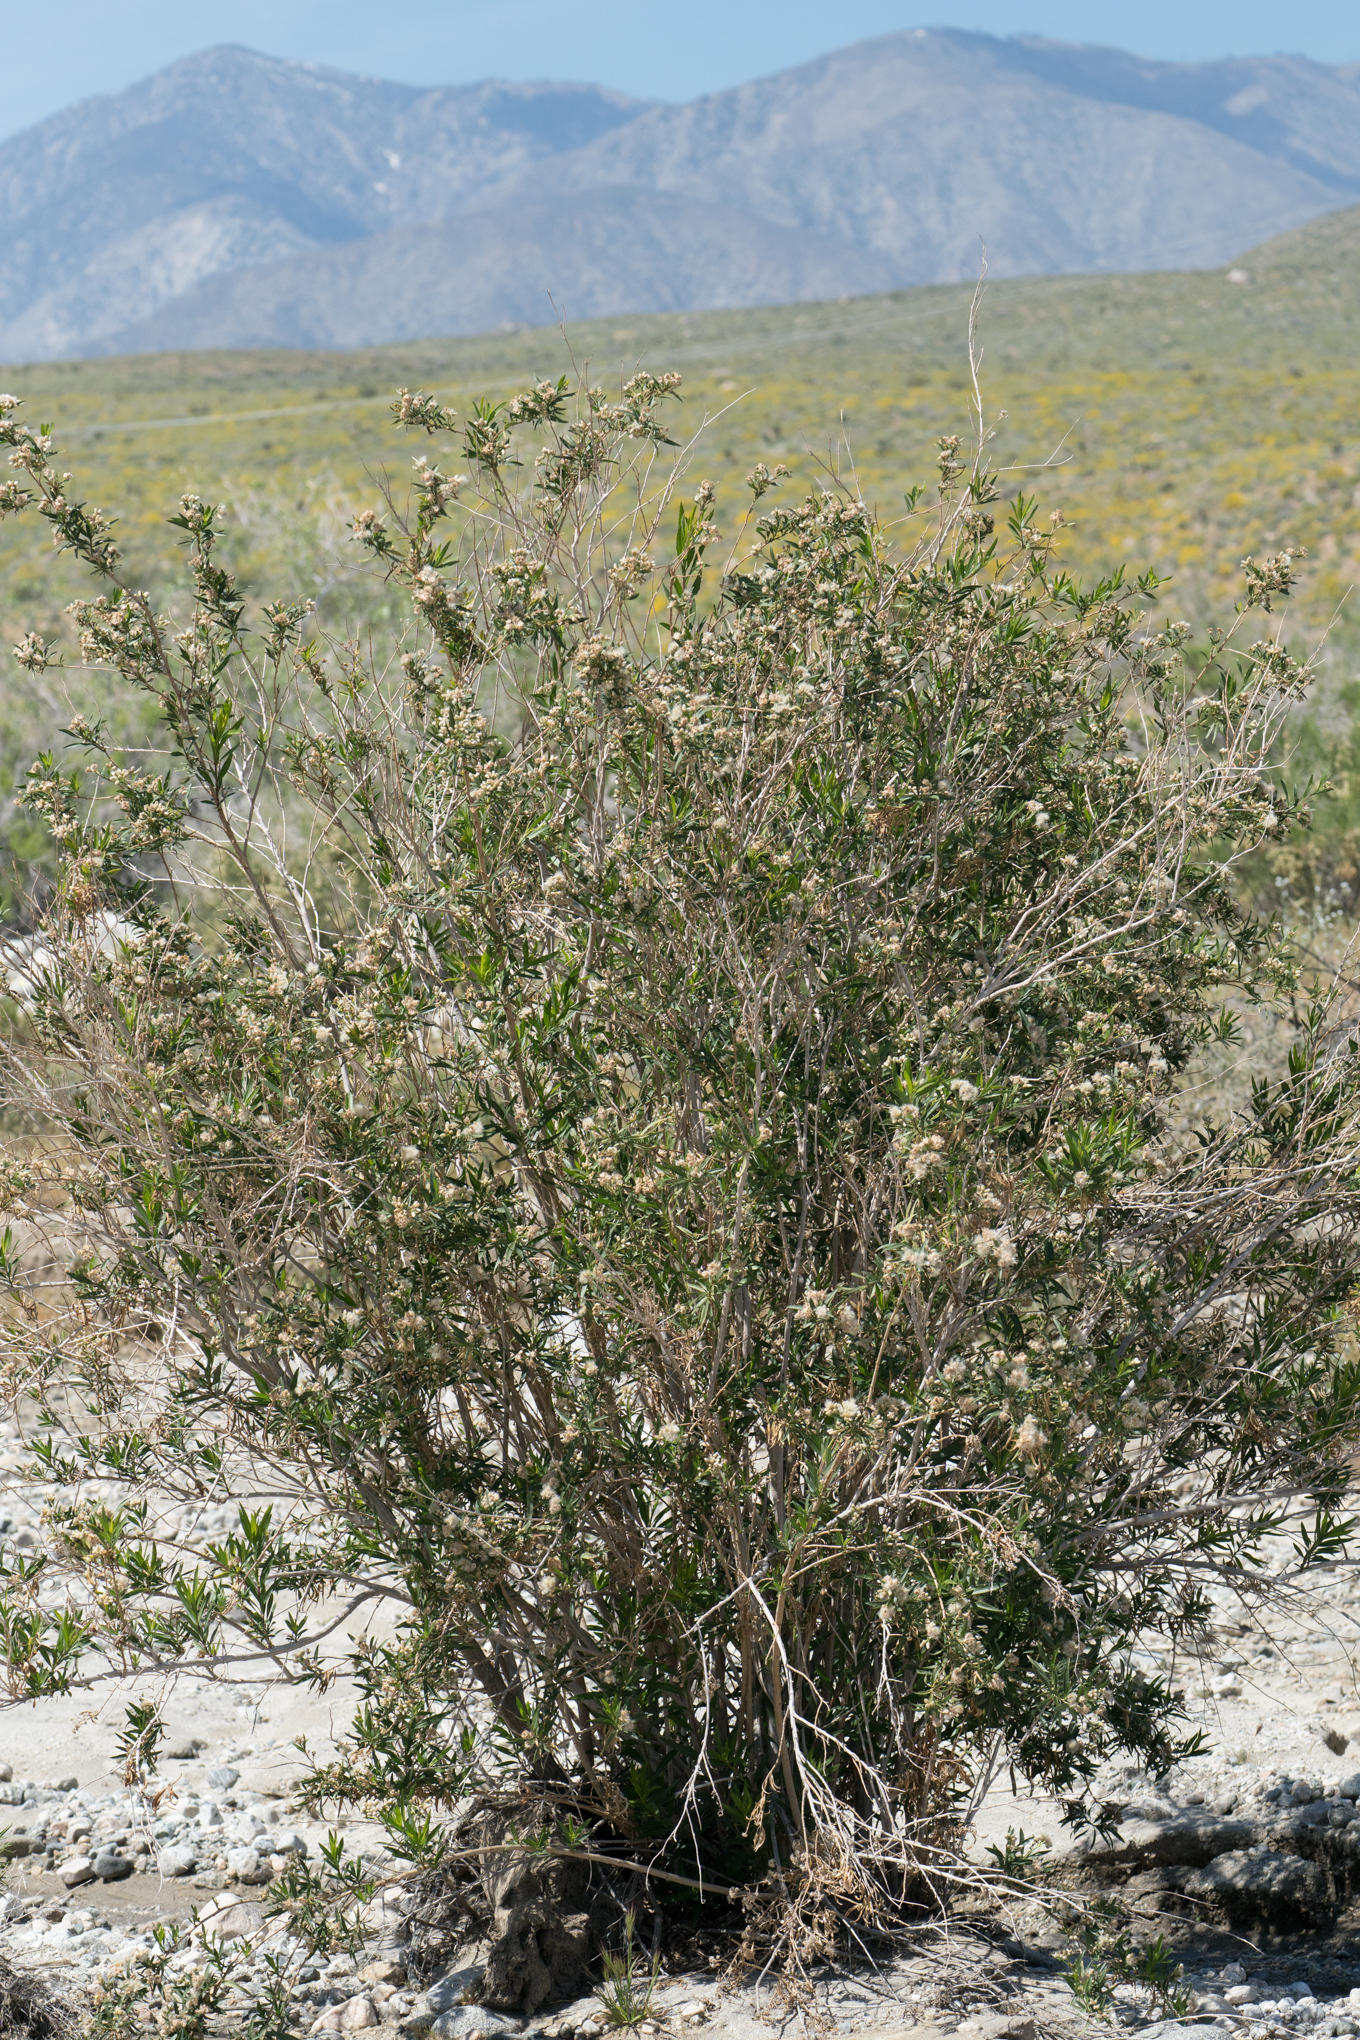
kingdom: Plantae
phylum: Tracheophyta
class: Magnoliopsida
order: Asterales
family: Asteraceae
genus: Baccharis
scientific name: Baccharis salicifolia
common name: Sticky baccharis
